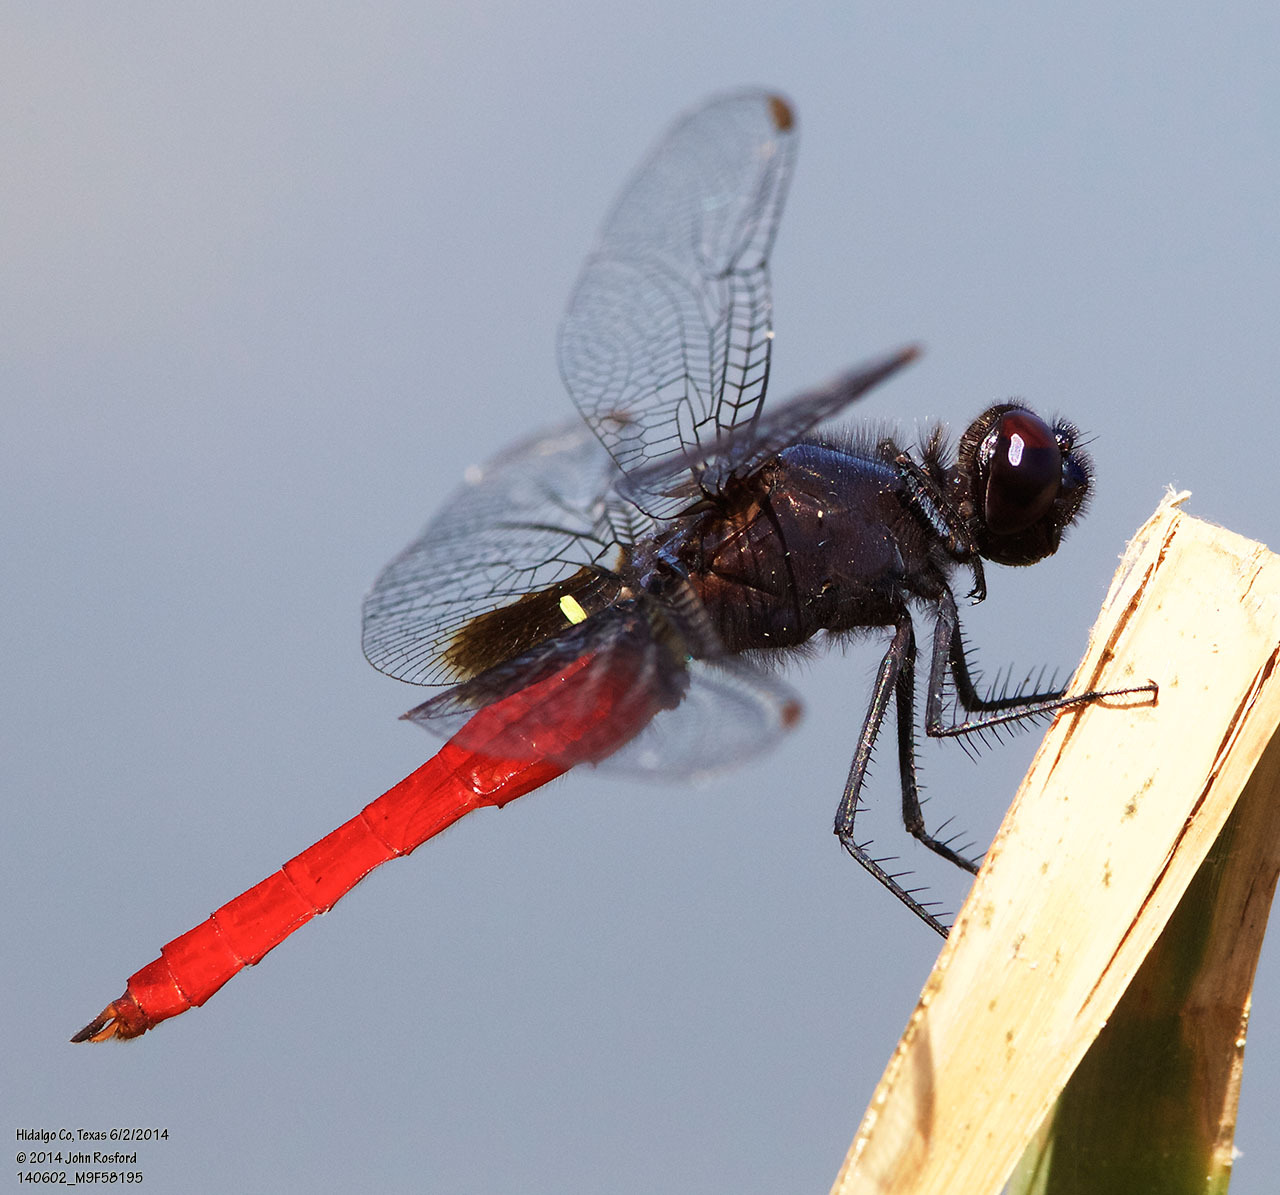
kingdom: Animalia
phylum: Arthropoda
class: Insecta
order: Odonata
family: Libellulidae
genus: Planiplax
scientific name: Planiplax sanguiniventris
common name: Mexican scarlet-tail
